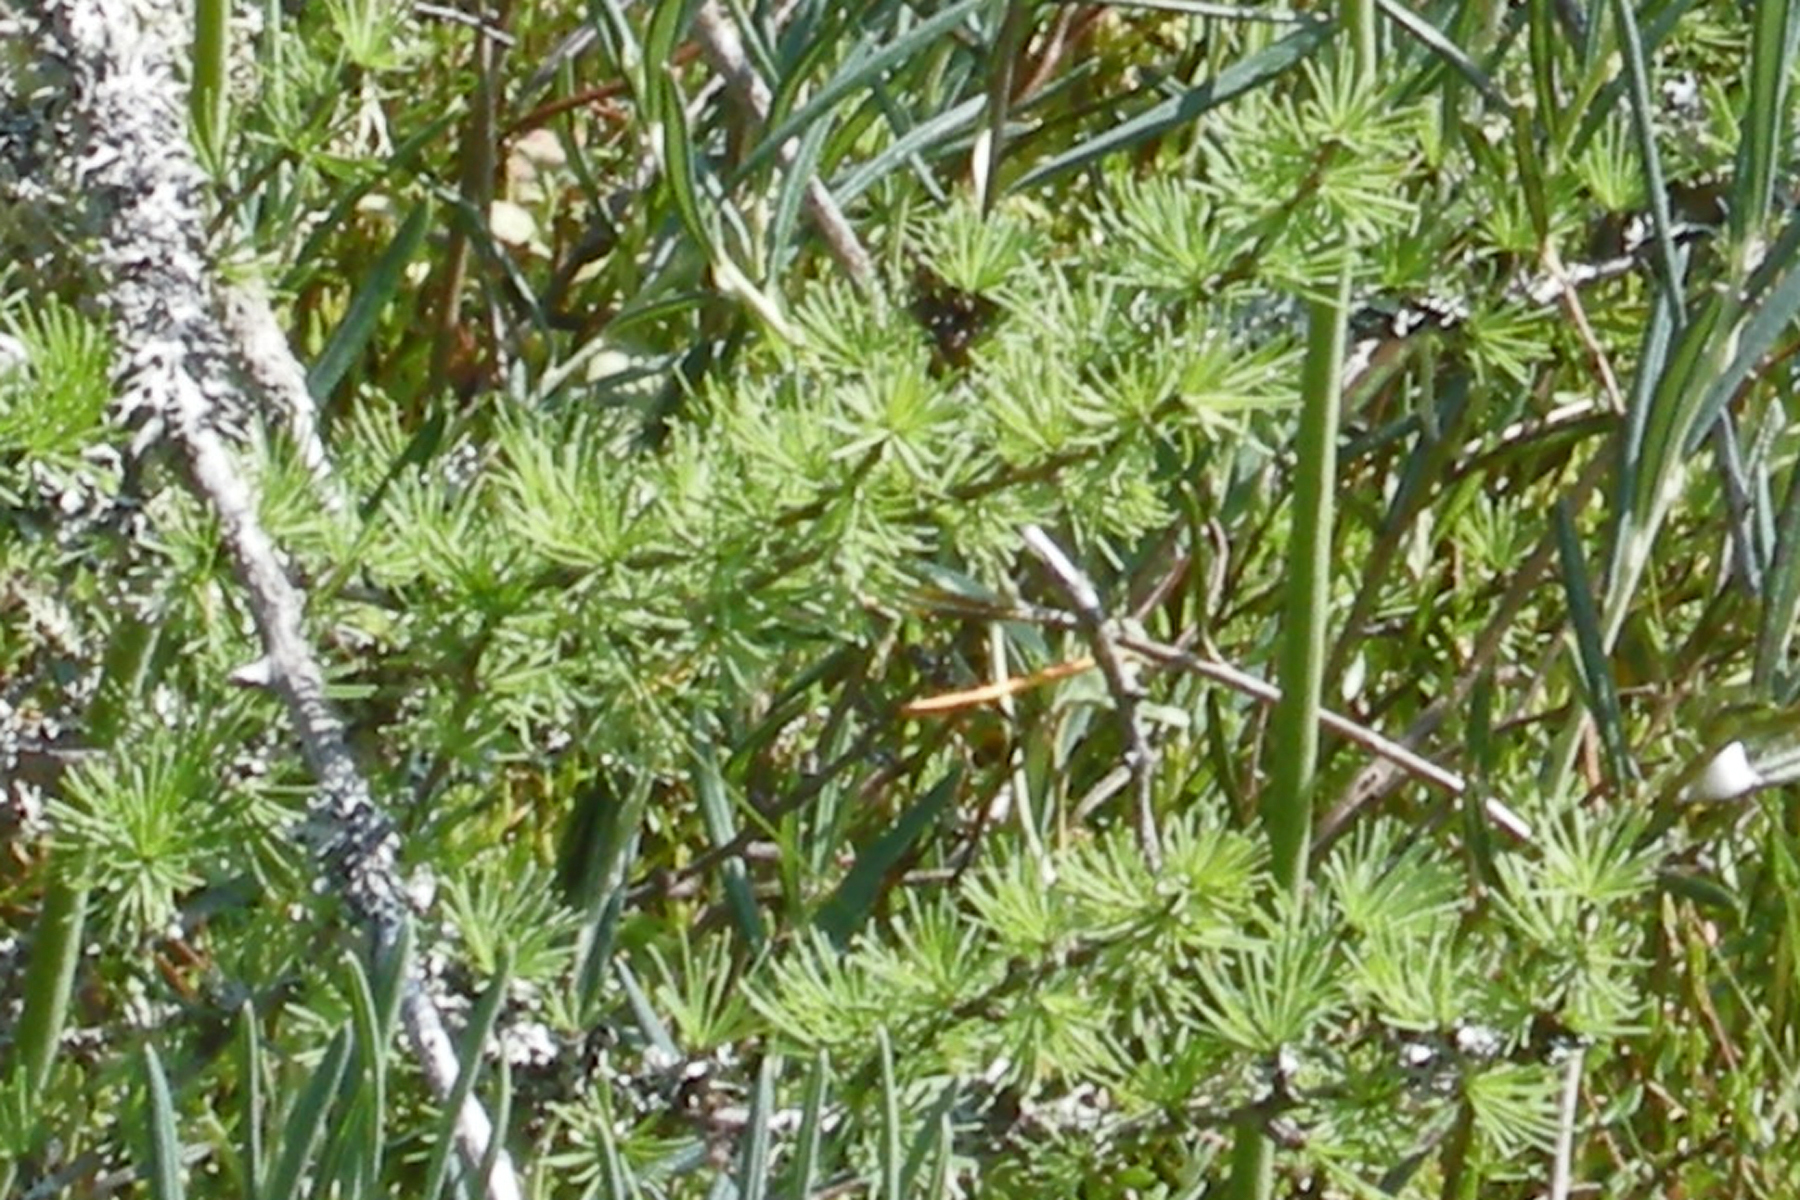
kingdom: Plantae
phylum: Tracheophyta
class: Pinopsida
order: Pinales
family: Pinaceae
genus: Larix
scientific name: Larix laricina
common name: American larch
